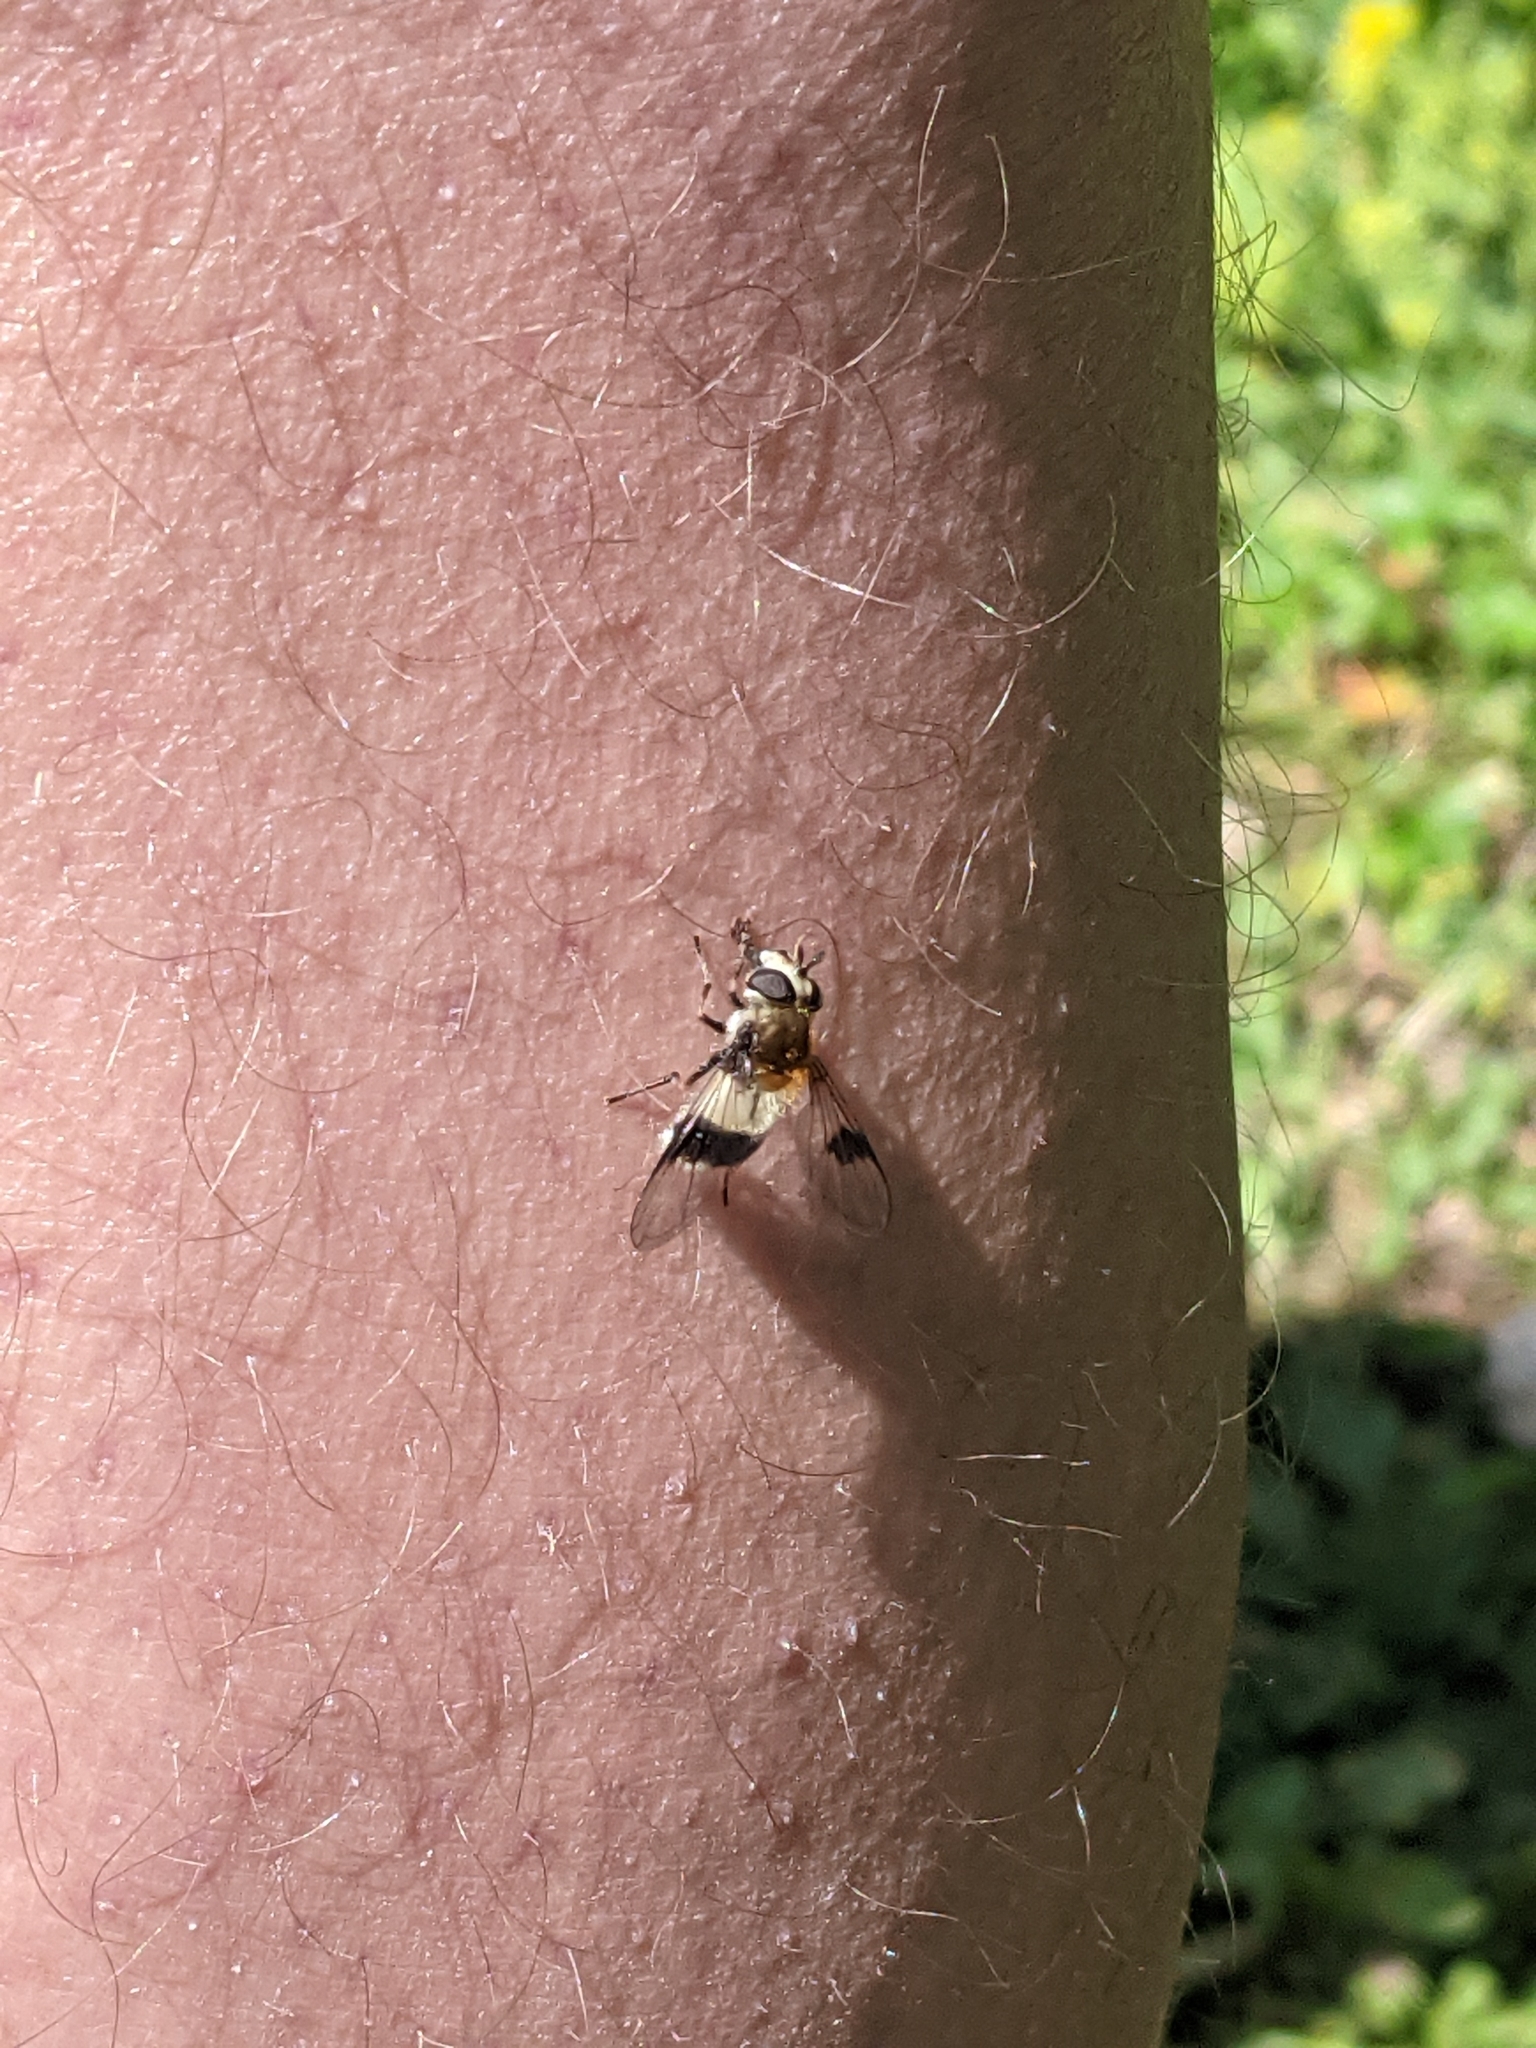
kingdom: Animalia
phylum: Arthropoda
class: Insecta
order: Diptera
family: Syrphidae
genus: Leucozona
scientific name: Leucozona lucorum
